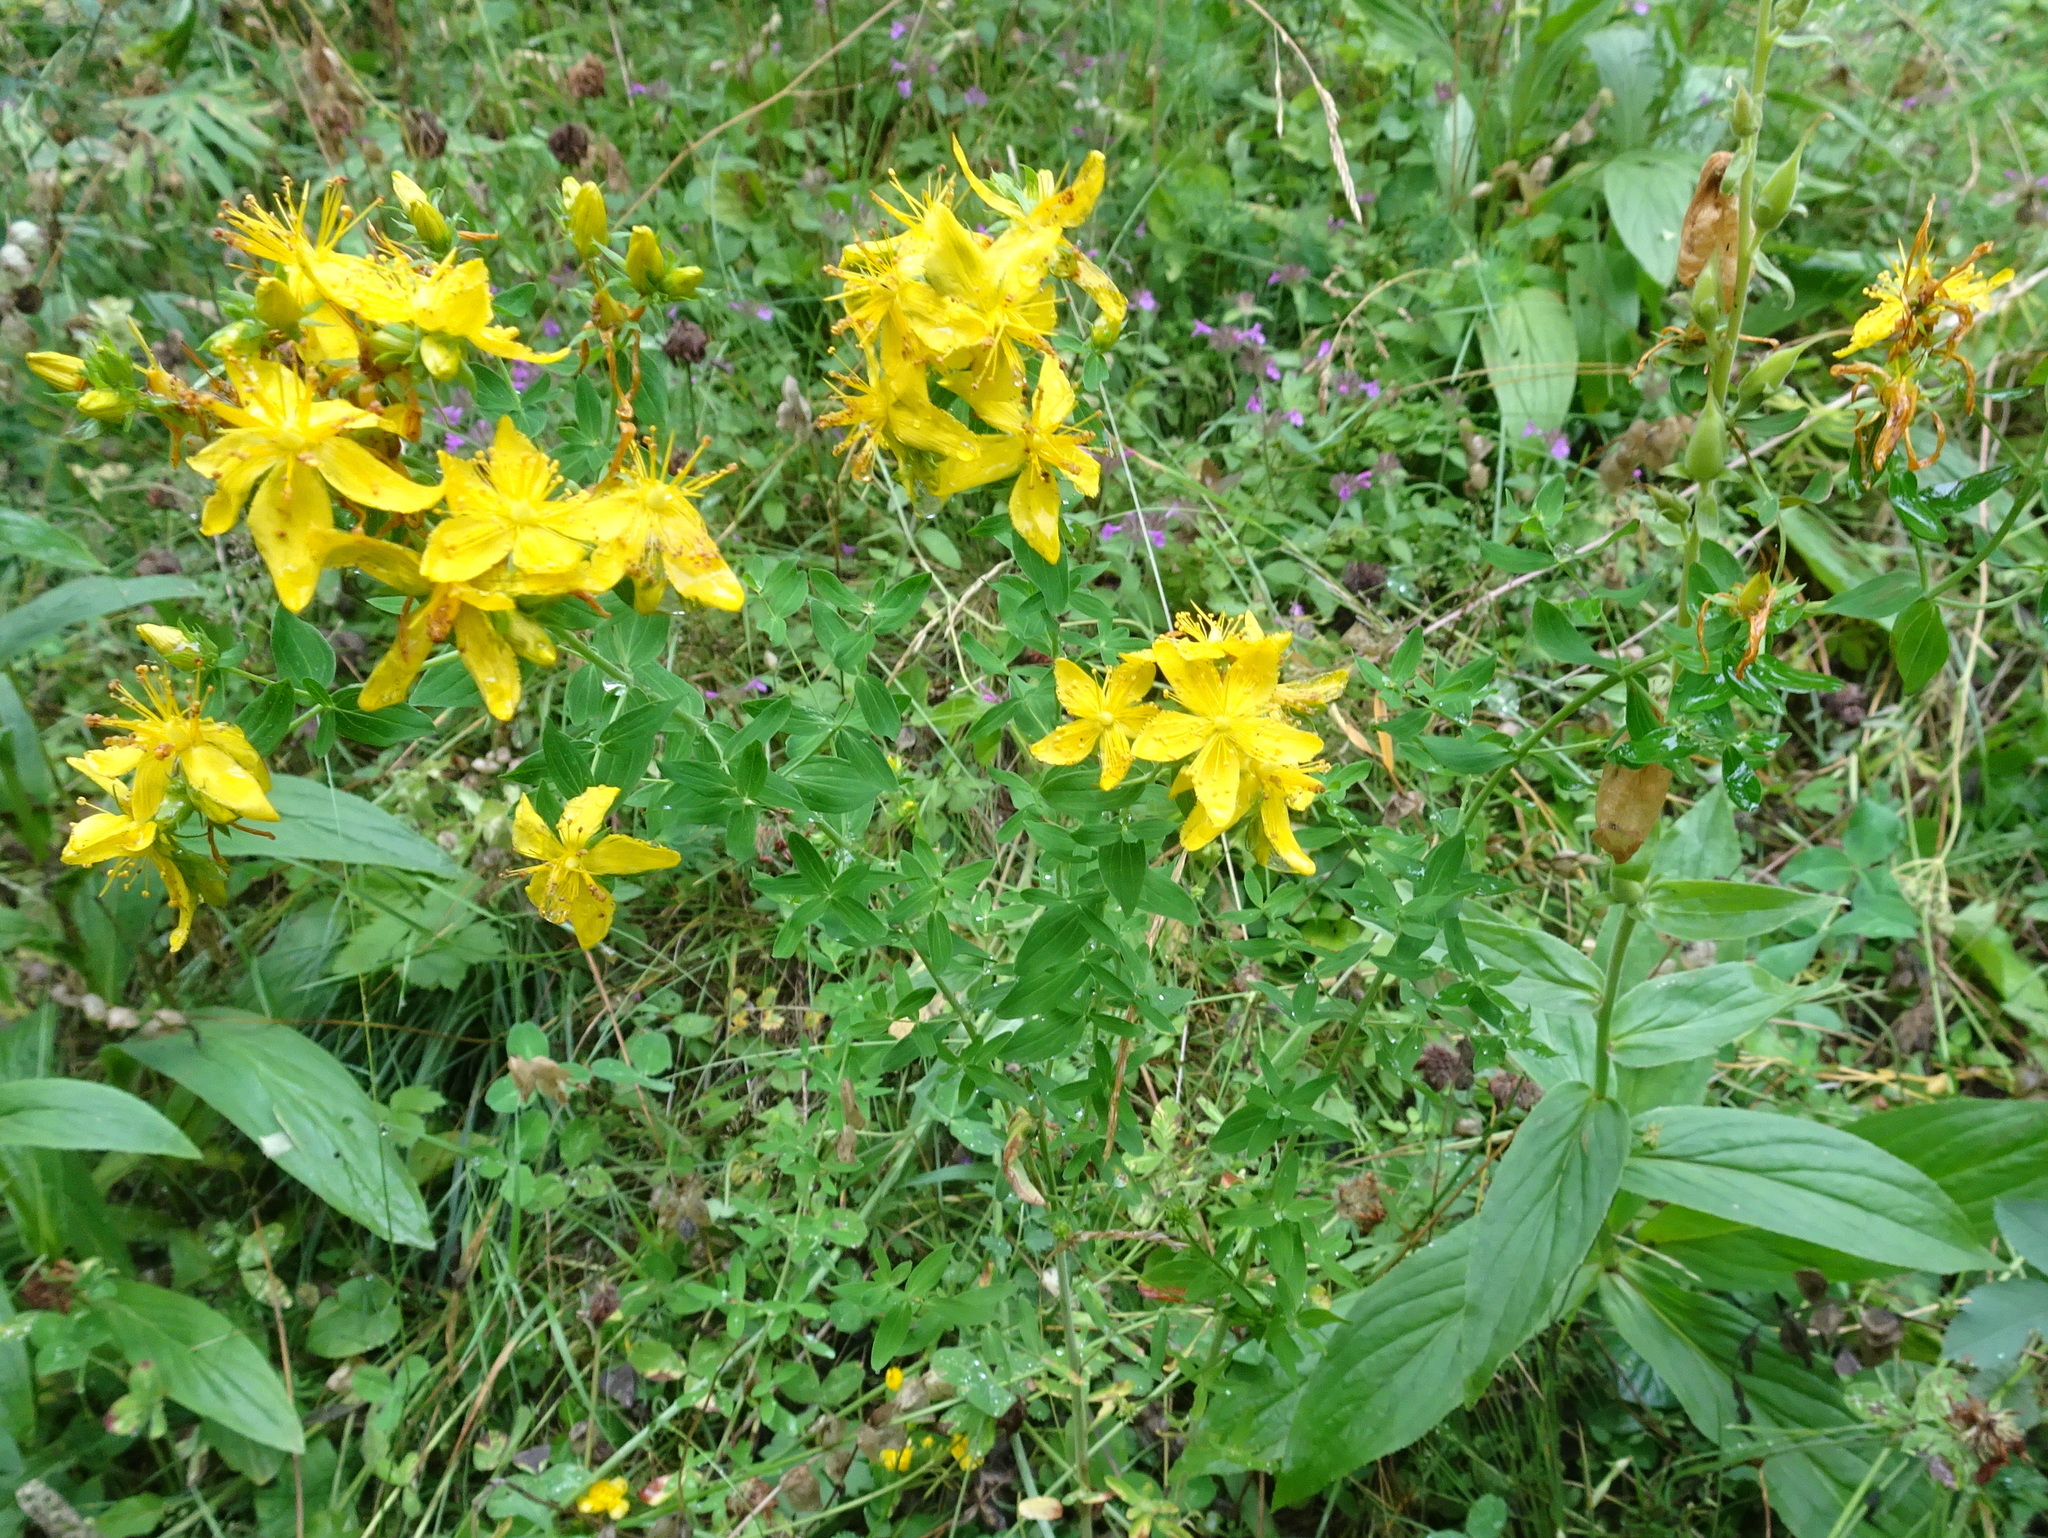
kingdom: Plantae
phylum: Tracheophyta
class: Magnoliopsida
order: Malpighiales
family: Hypericaceae
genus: Hypericum
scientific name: Hypericum perforatum
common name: Common st. johnswort
